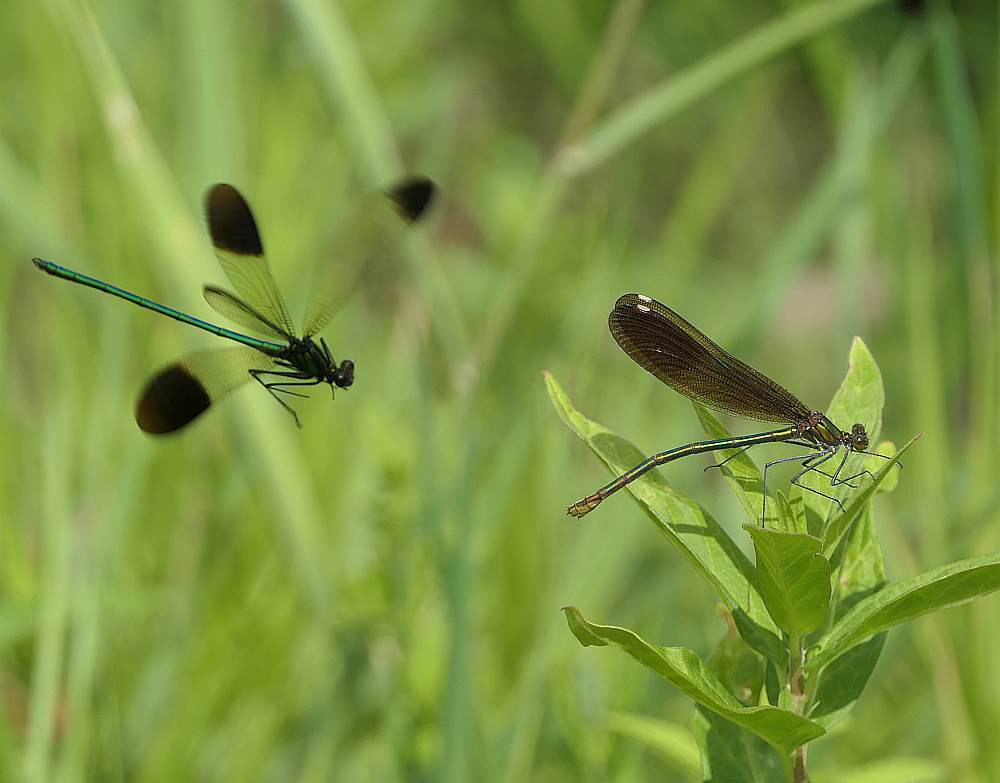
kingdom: Animalia
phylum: Arthropoda
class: Insecta
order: Odonata
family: Calopterygidae
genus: Calopteryx
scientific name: Calopteryx aequabilis
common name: River jewelwing
